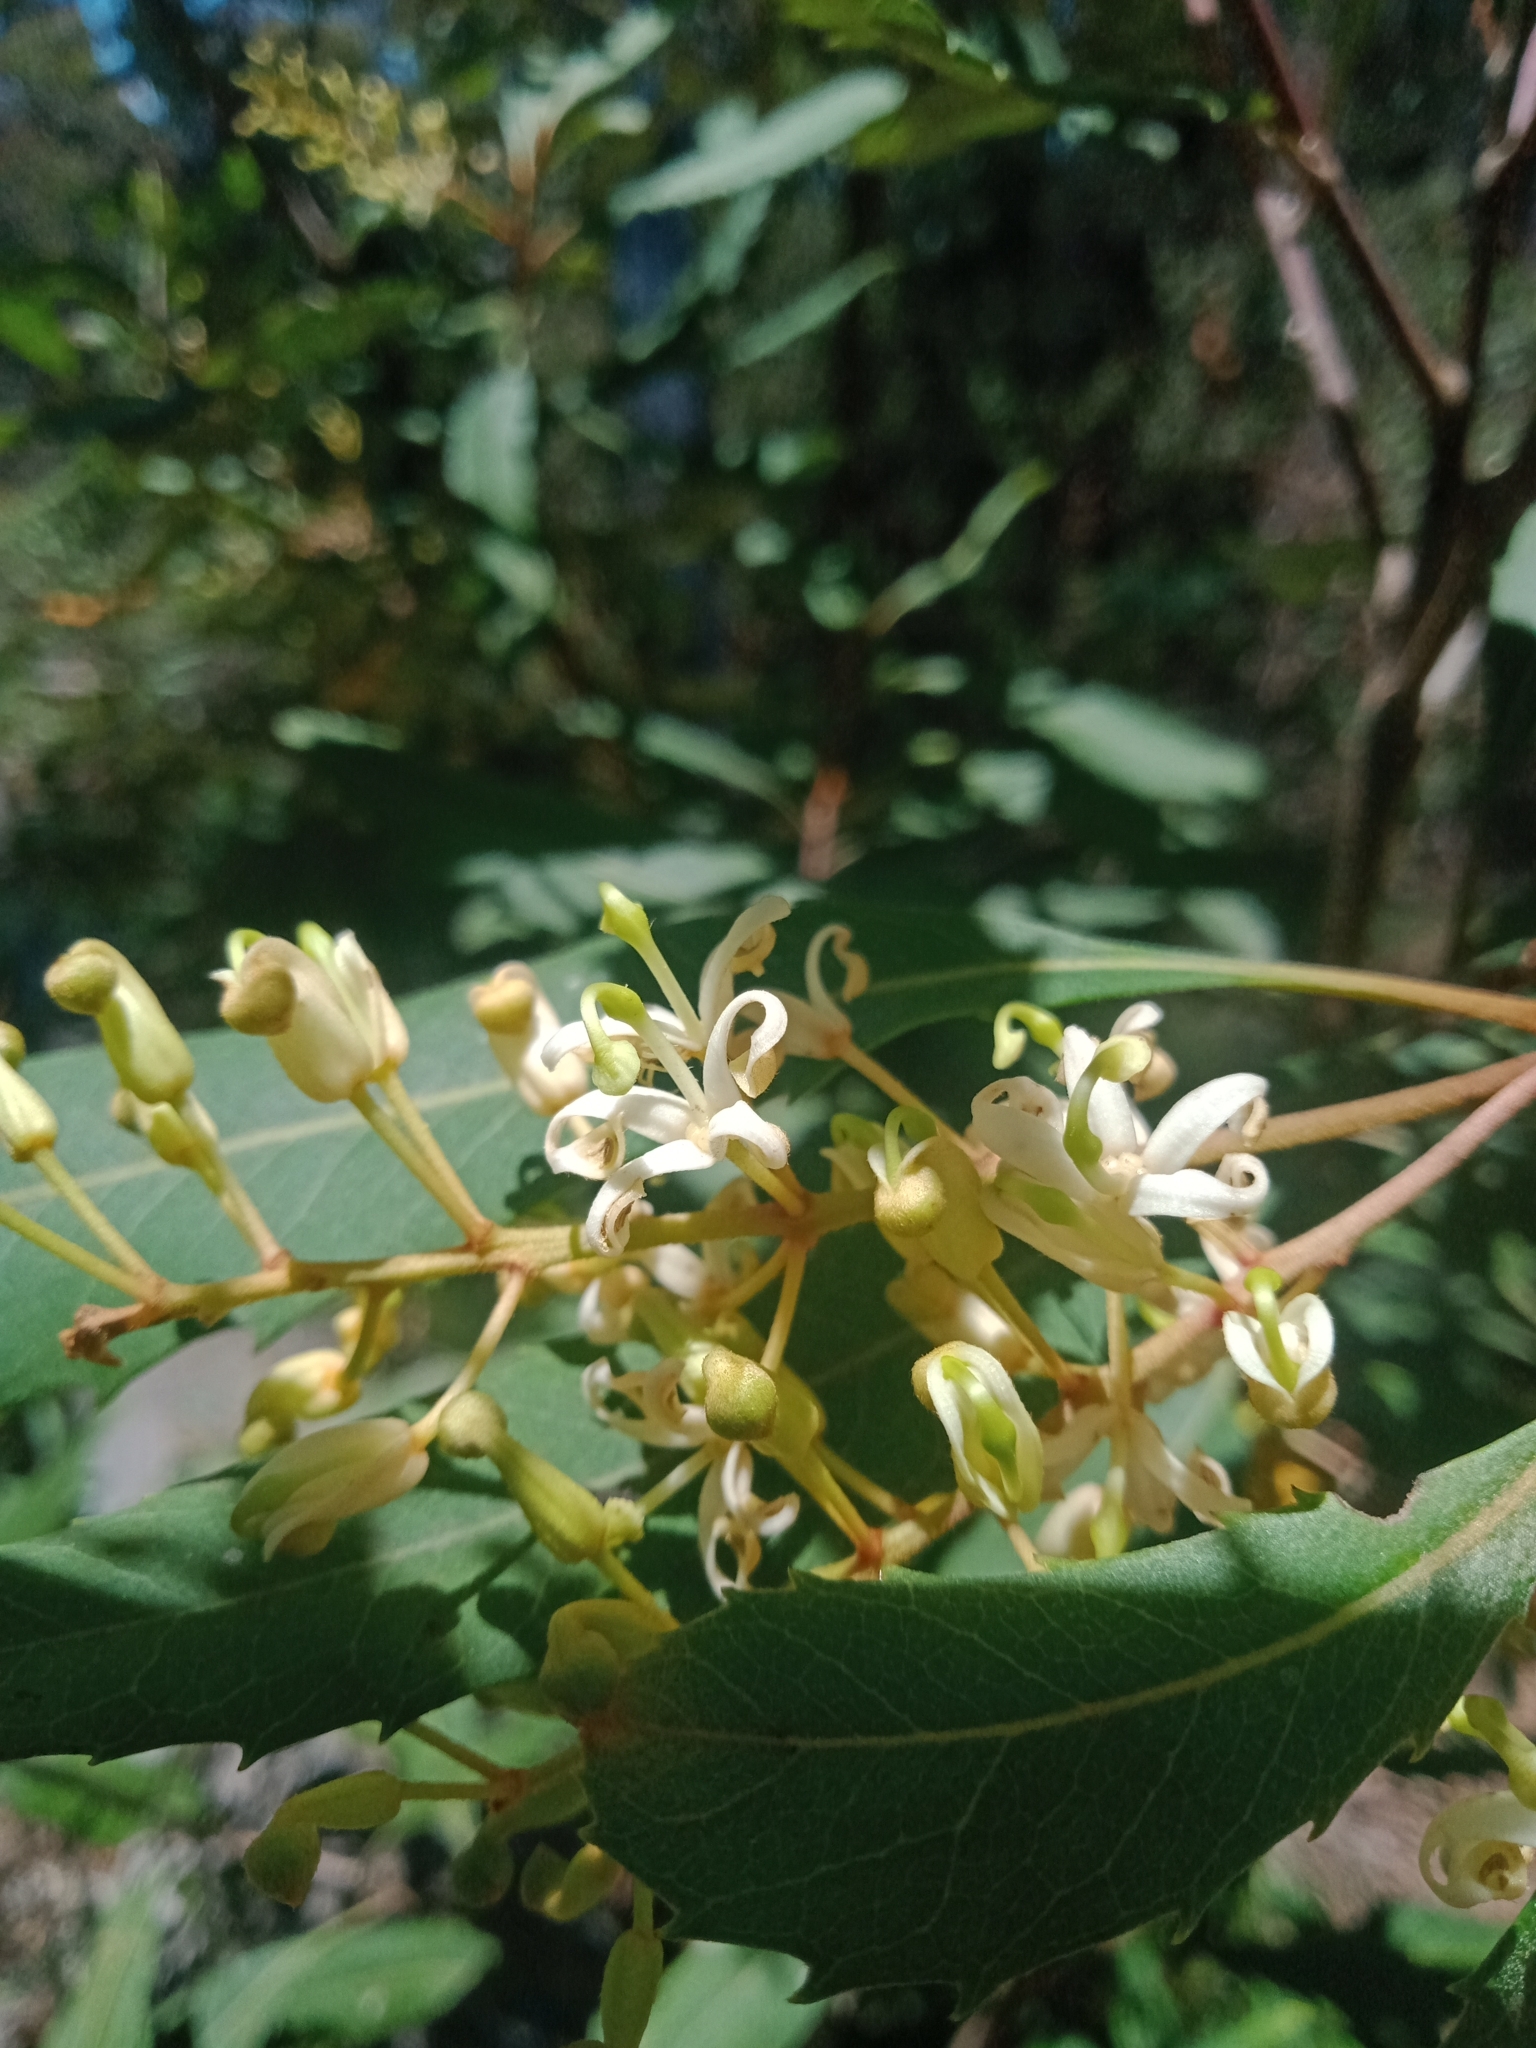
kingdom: Plantae
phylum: Tracheophyta
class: Magnoliopsida
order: Proteales
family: Proteaceae
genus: Lomatia
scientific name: Lomatia fraseri
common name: Forest lomatia
